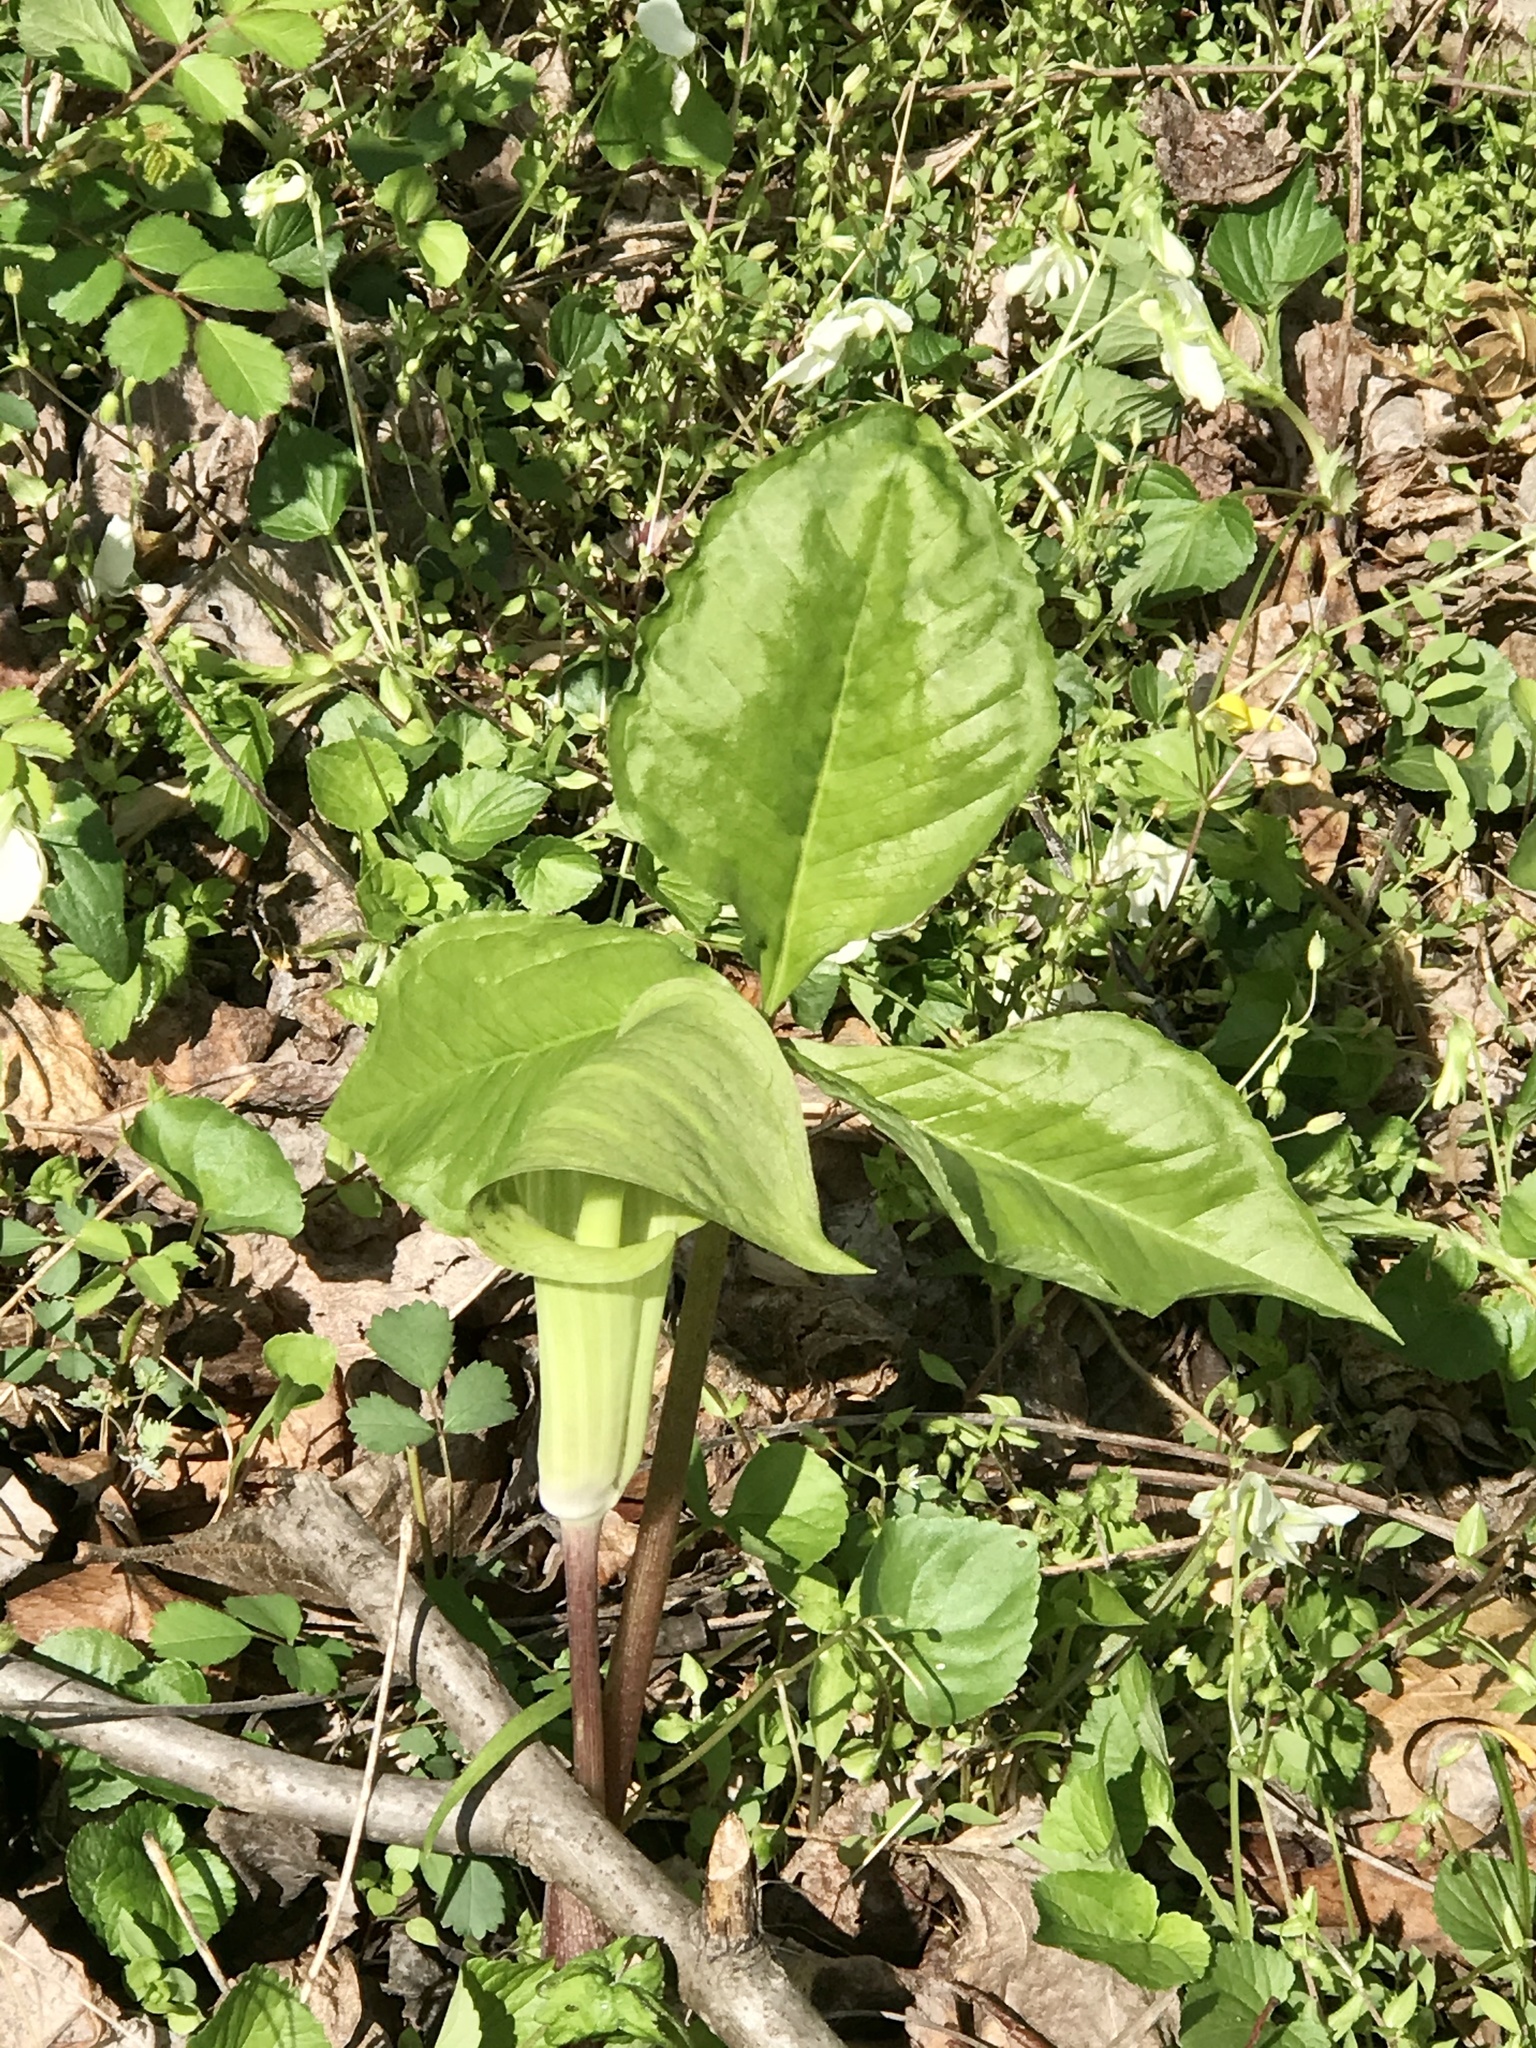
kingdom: Plantae
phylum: Tracheophyta
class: Liliopsida
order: Alismatales
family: Araceae
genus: Arisaema
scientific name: Arisaema triphyllum
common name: Jack-in-the-pulpit
